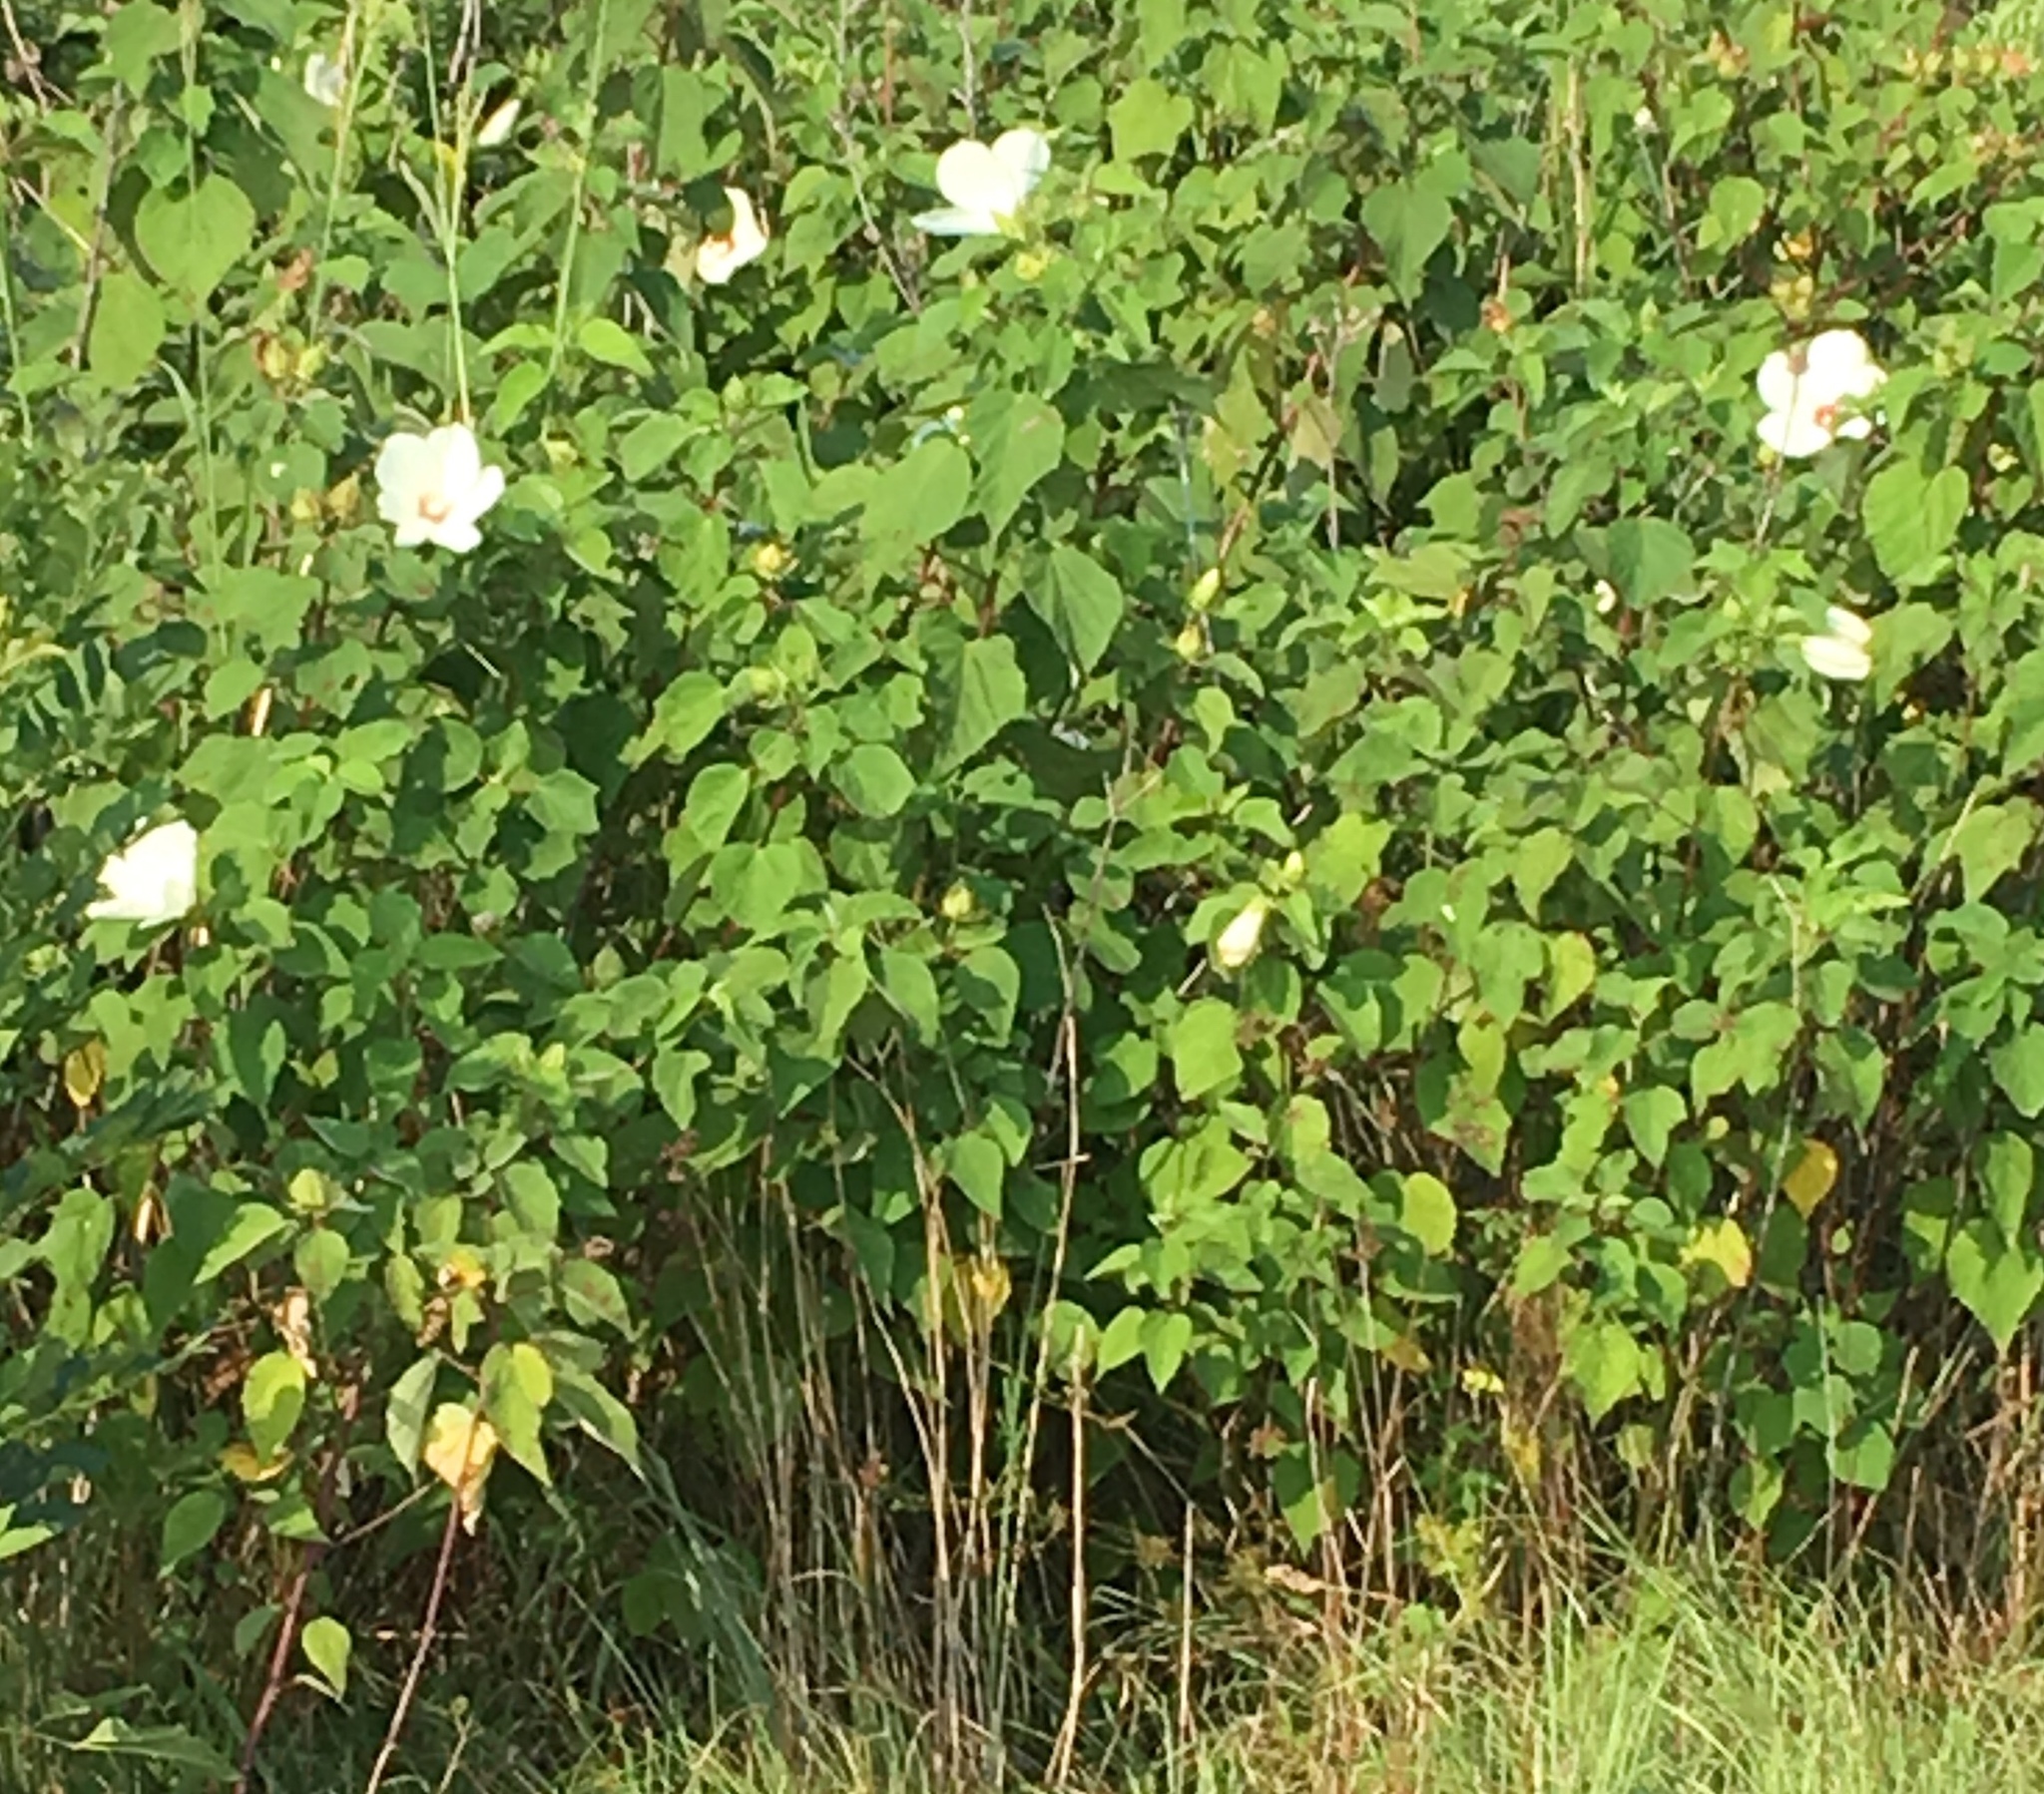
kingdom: Plantae
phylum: Tracheophyta
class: Magnoliopsida
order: Malvales
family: Malvaceae
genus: Hibiscus
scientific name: Hibiscus moscheutos
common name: Common rose-mallow
